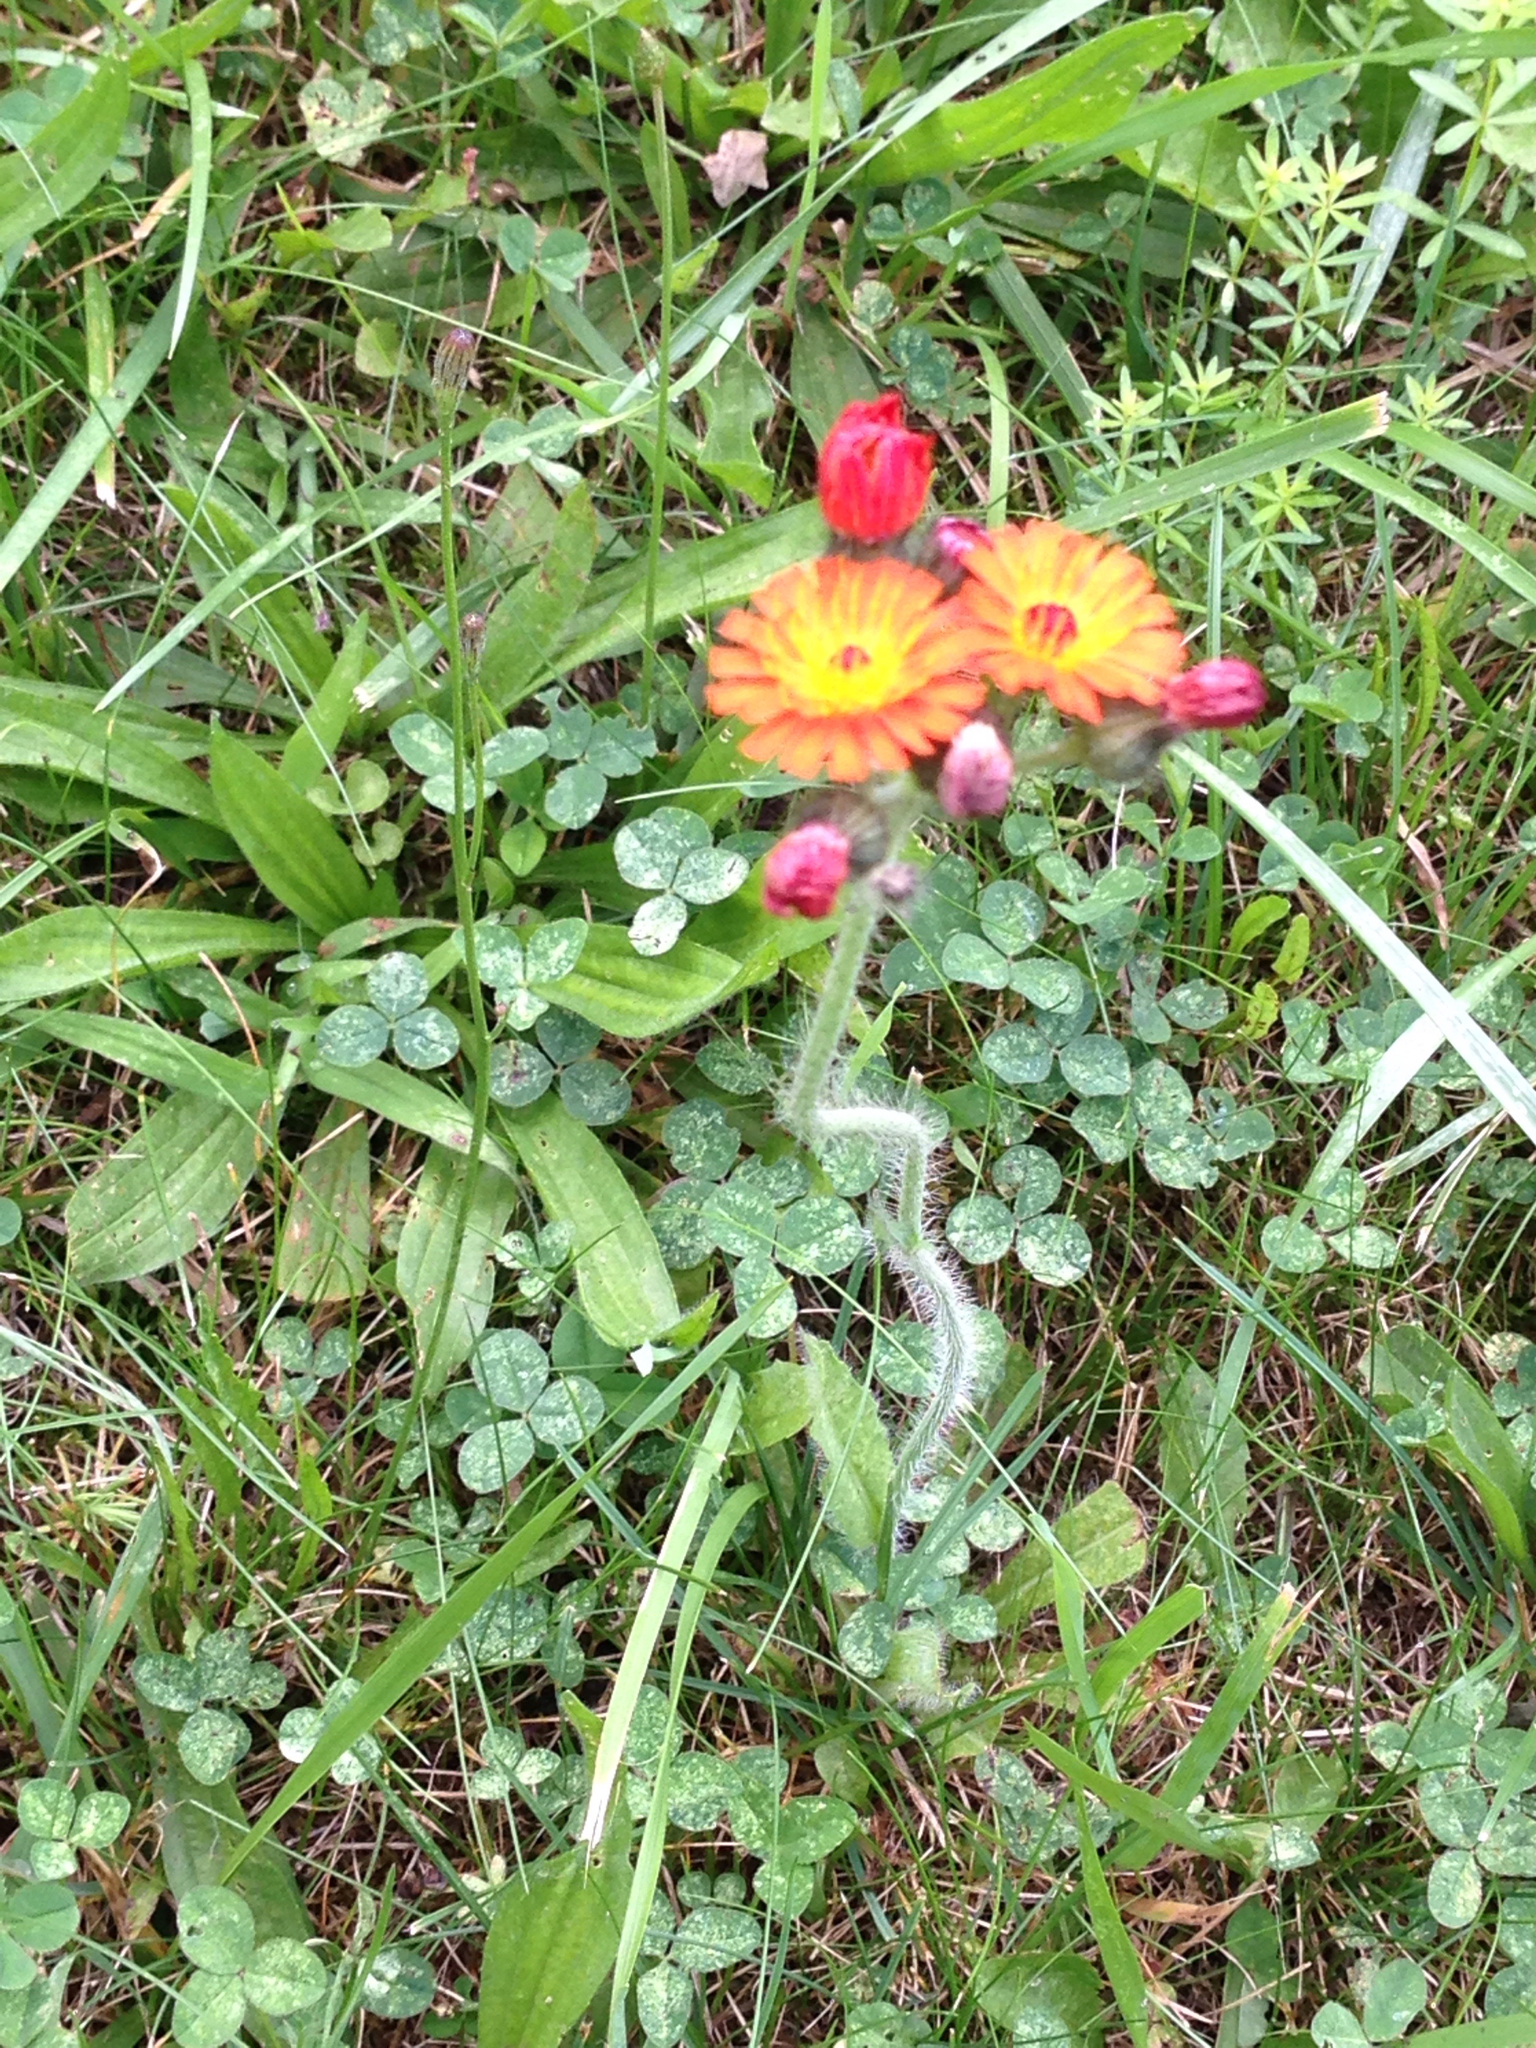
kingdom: Plantae
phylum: Tracheophyta
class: Magnoliopsida
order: Asterales
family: Asteraceae
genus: Pilosella
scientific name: Pilosella aurantiaca
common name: Fox-and-cubs
